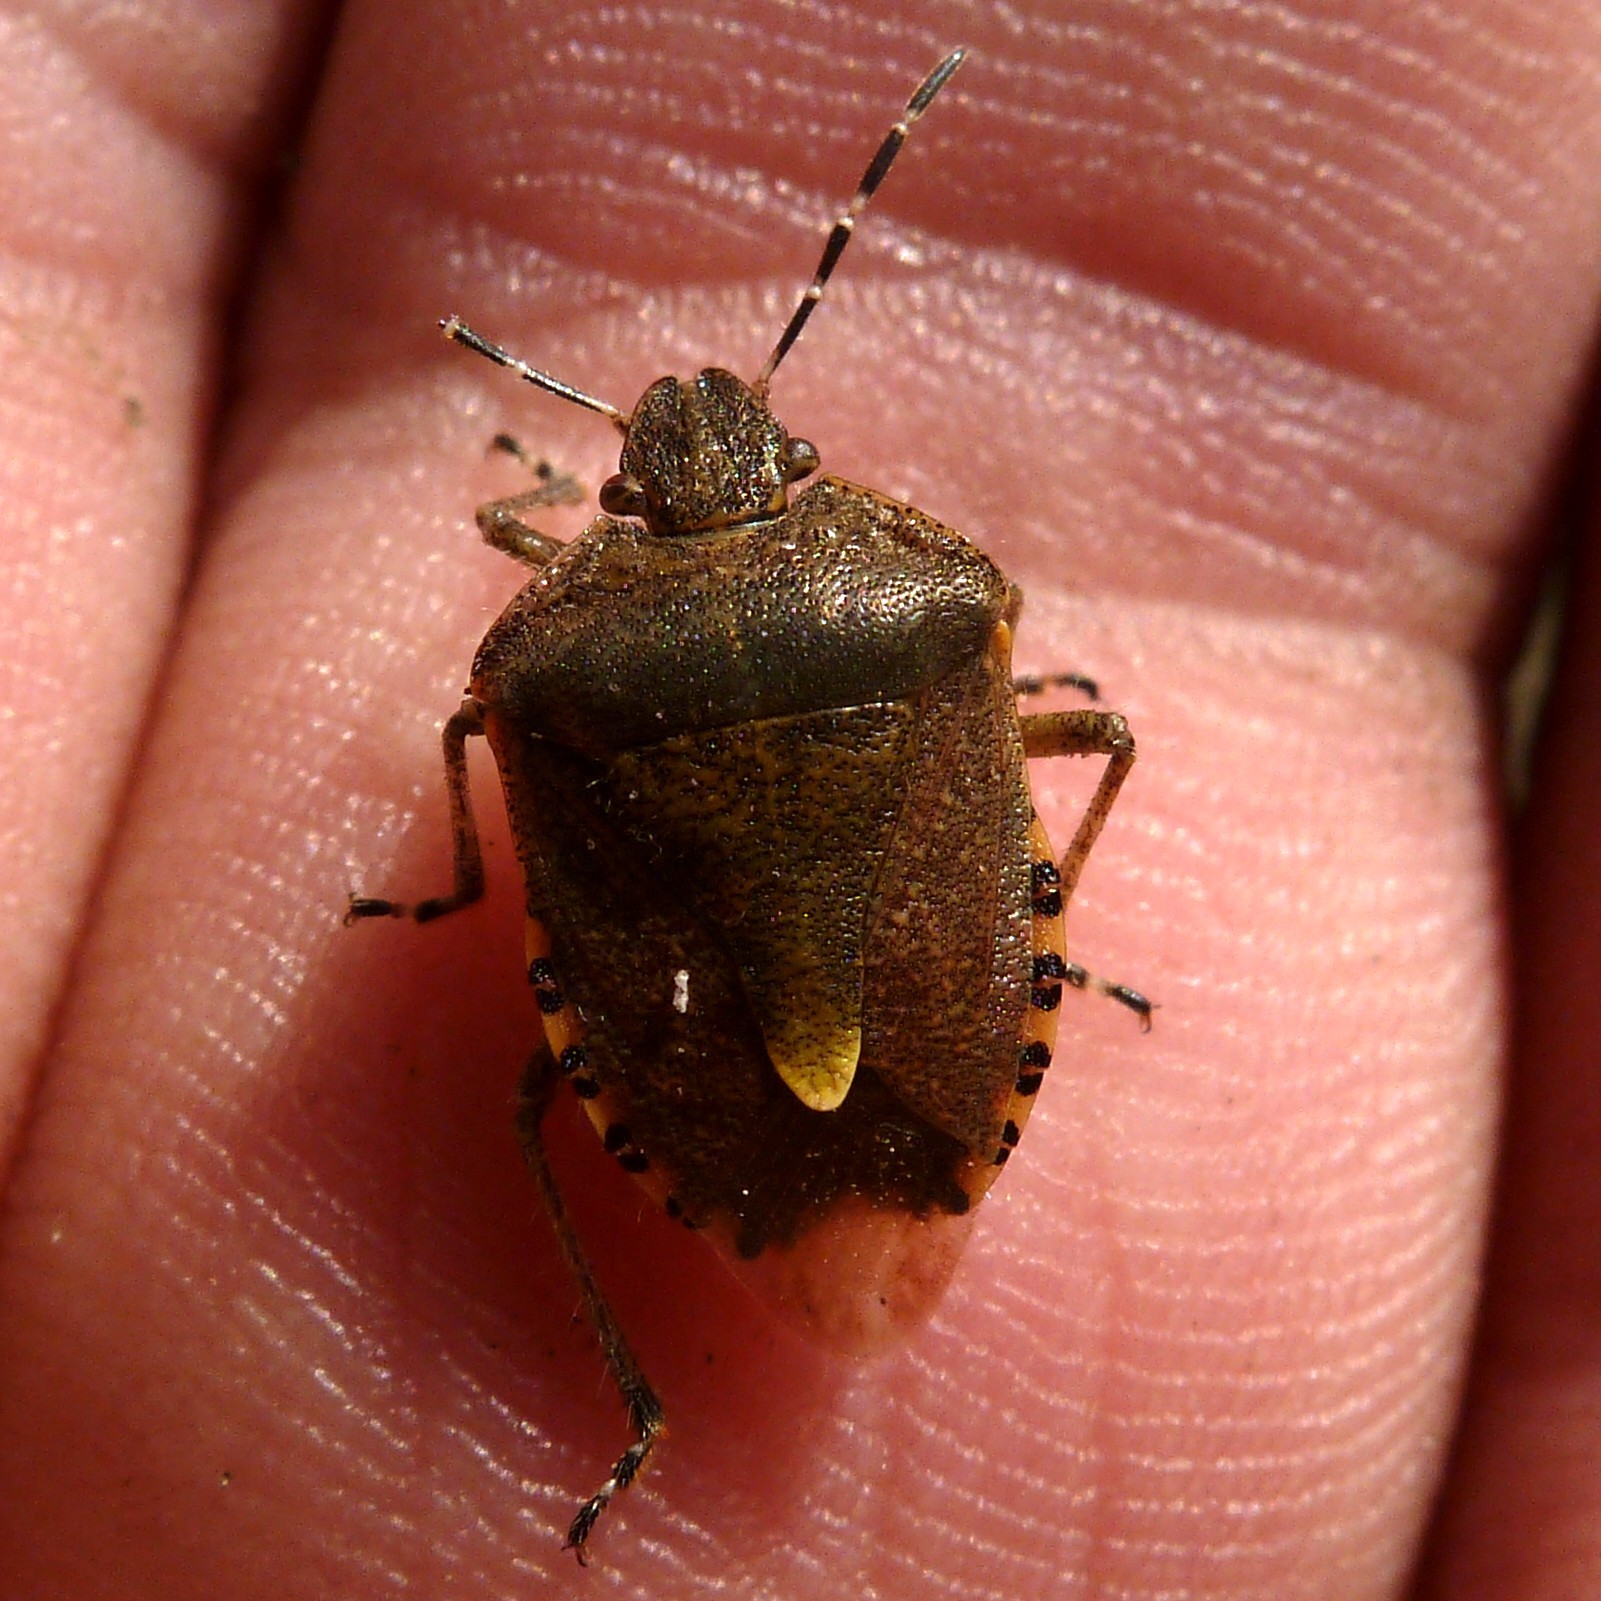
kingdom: Animalia
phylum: Arthropoda
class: Insecta
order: Hemiptera
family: Pentatomidae
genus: Dolycoris
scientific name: Dolycoris baccarum
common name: Sloe bug
